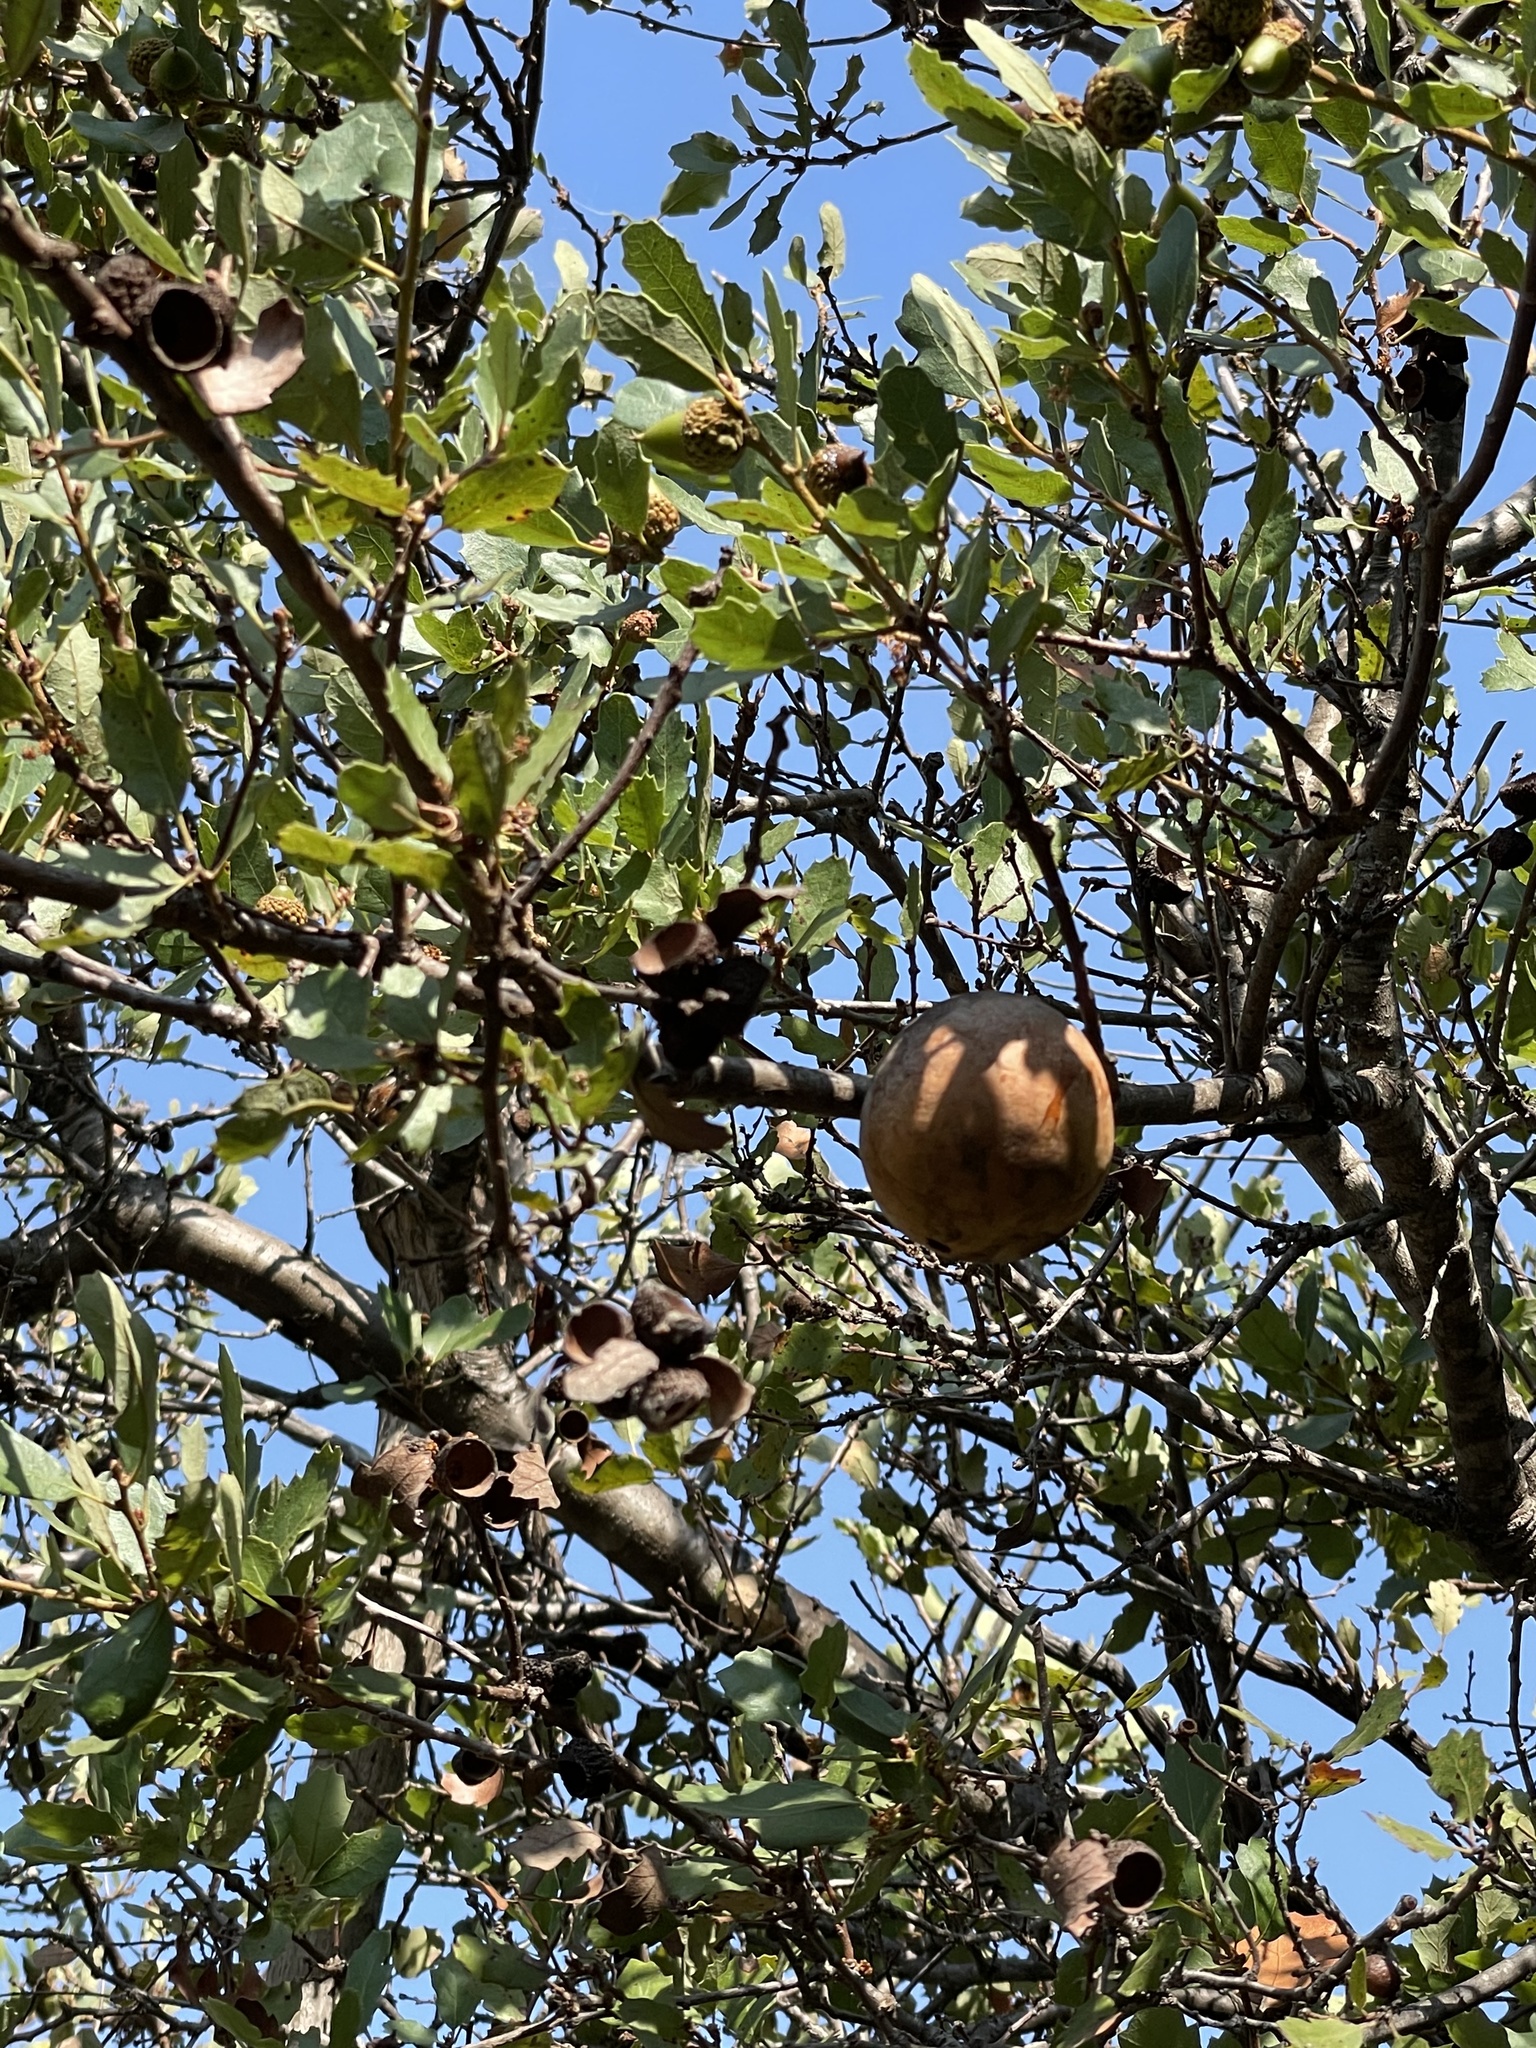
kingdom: Animalia
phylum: Arthropoda
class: Insecta
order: Hymenoptera
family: Cynipidae
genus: Andricus
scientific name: Andricus quercuscalifornicus
